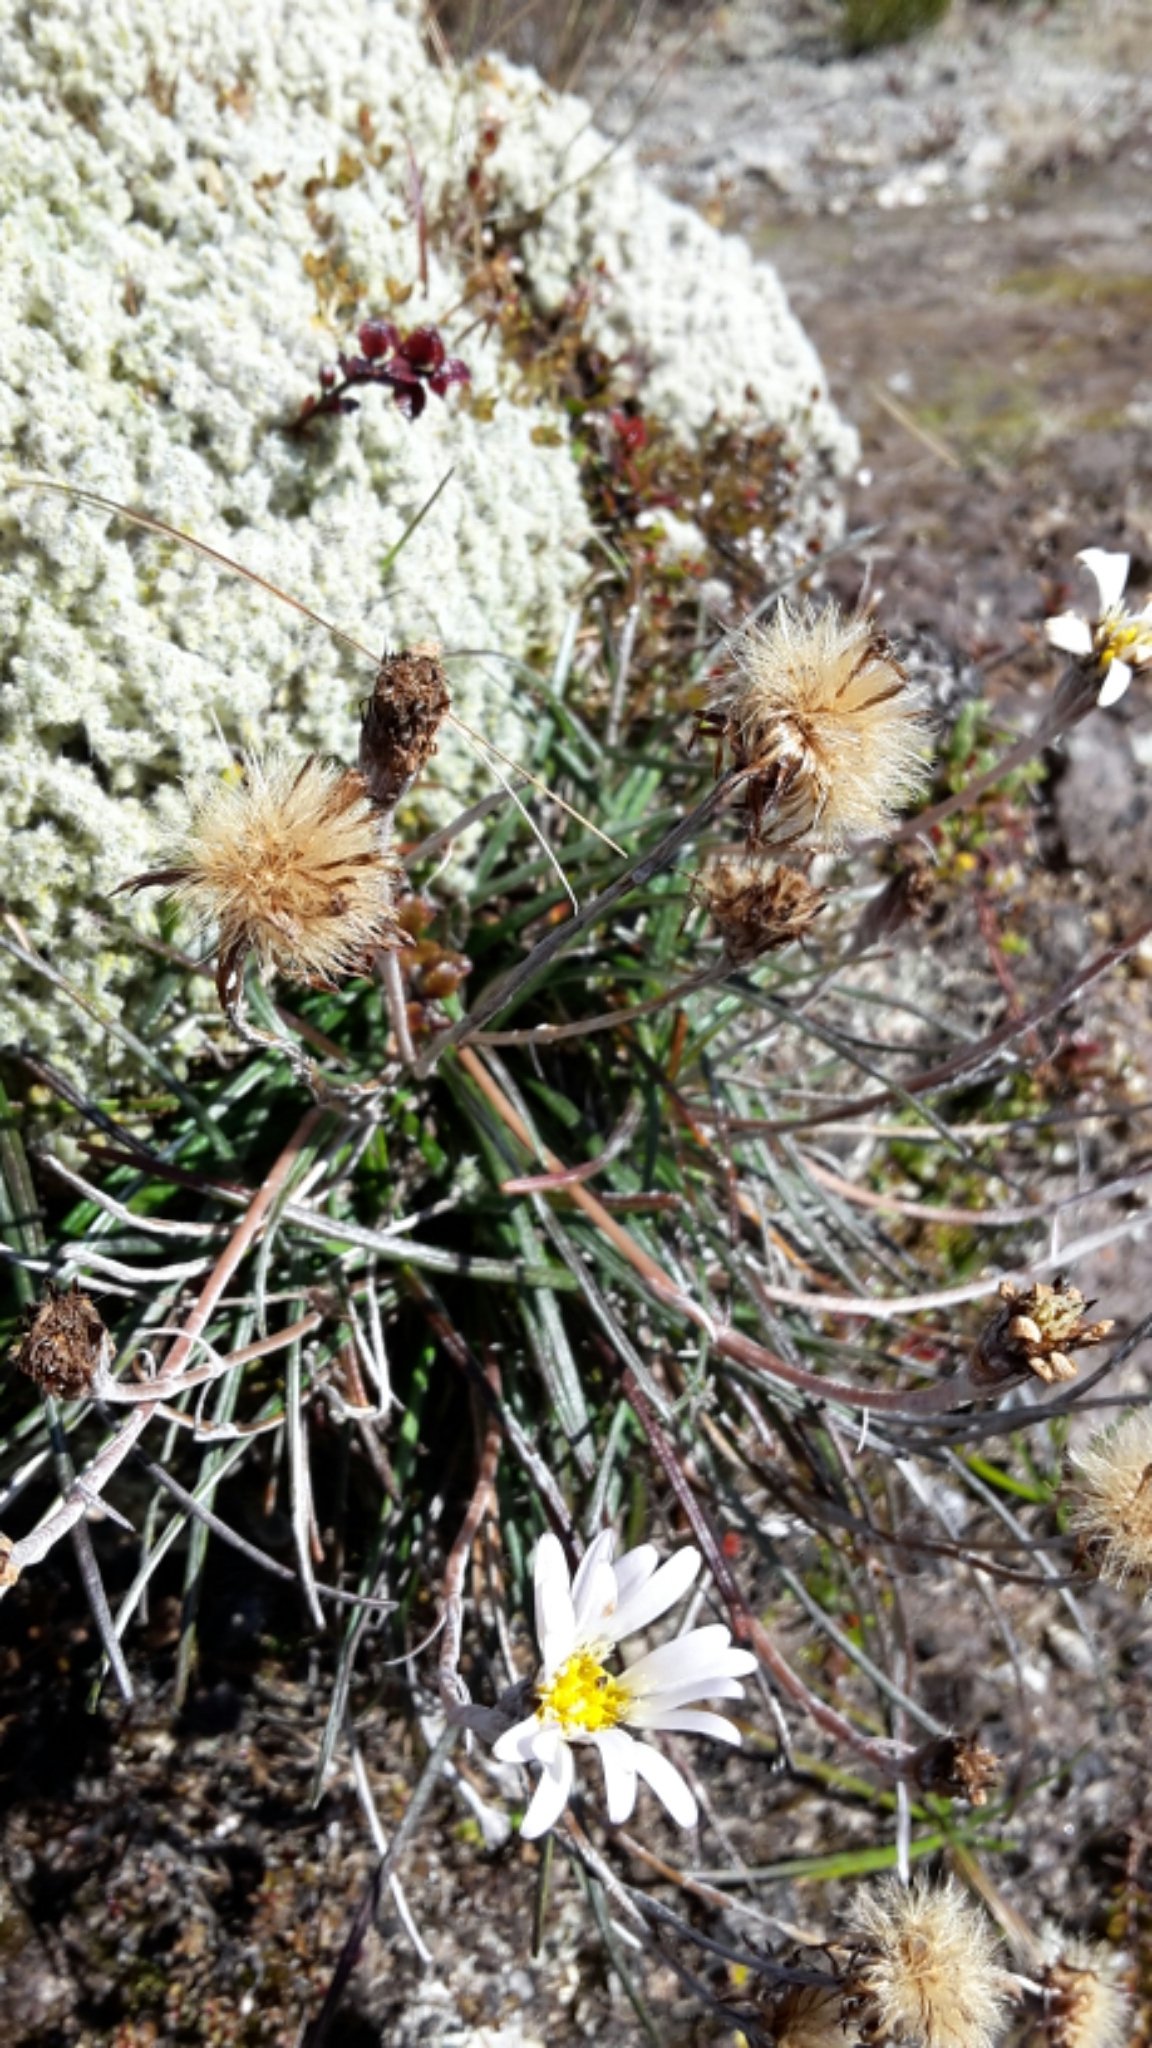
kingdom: Plantae
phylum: Tracheophyta
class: Magnoliopsida
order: Asterales
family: Asteraceae
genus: Celmisia
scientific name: Celmisia gracilenta
